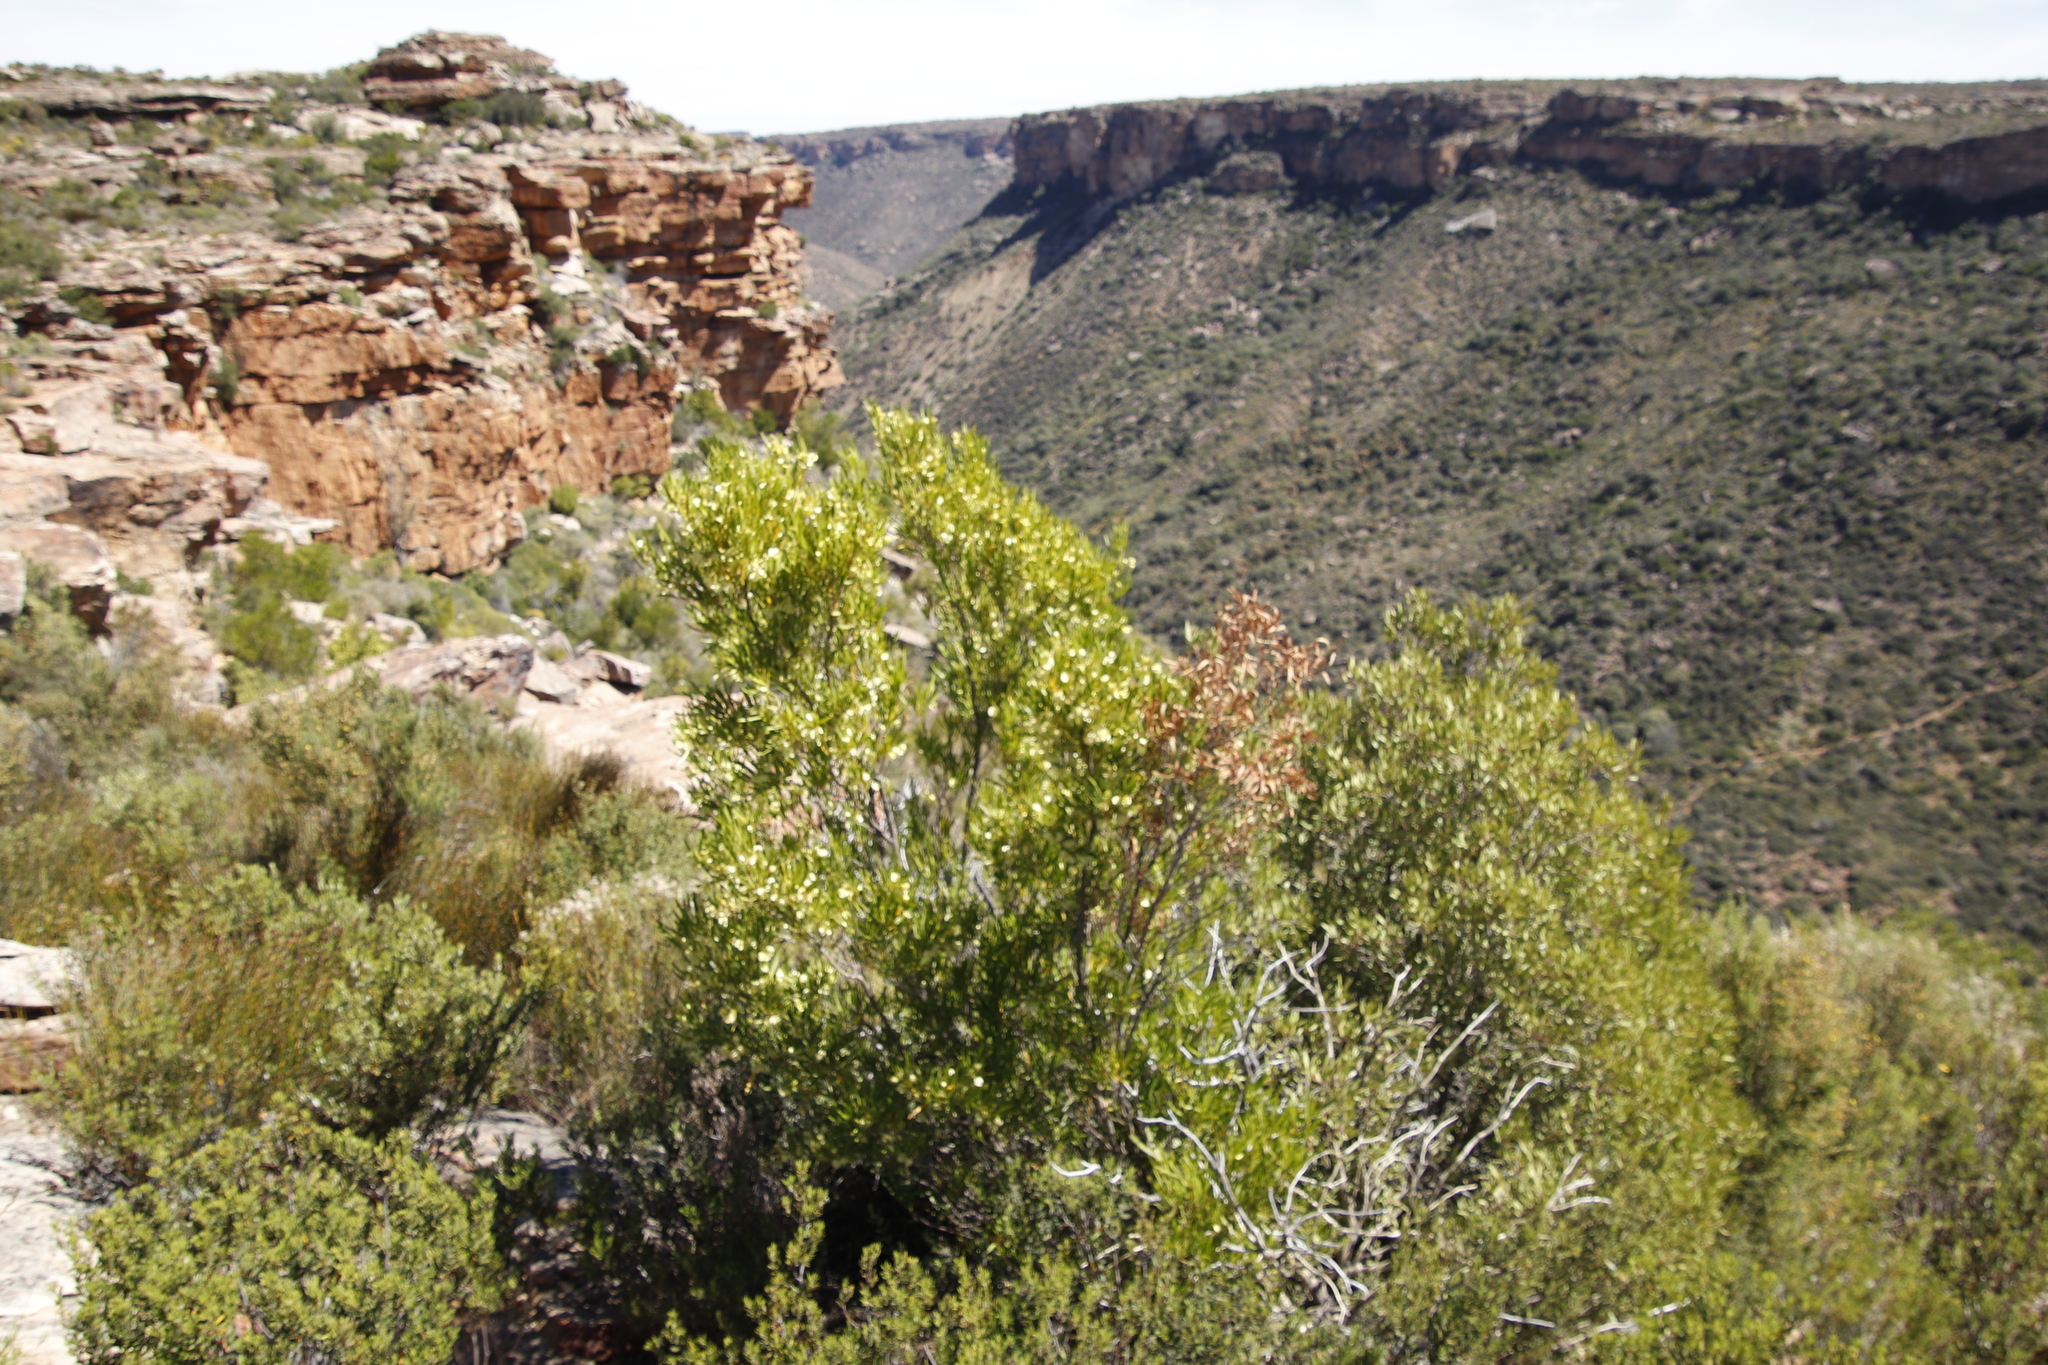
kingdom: Plantae
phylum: Tracheophyta
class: Magnoliopsida
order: Sapindales
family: Sapindaceae
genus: Dodonaea
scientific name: Dodonaea viscosa
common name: Hopbush
